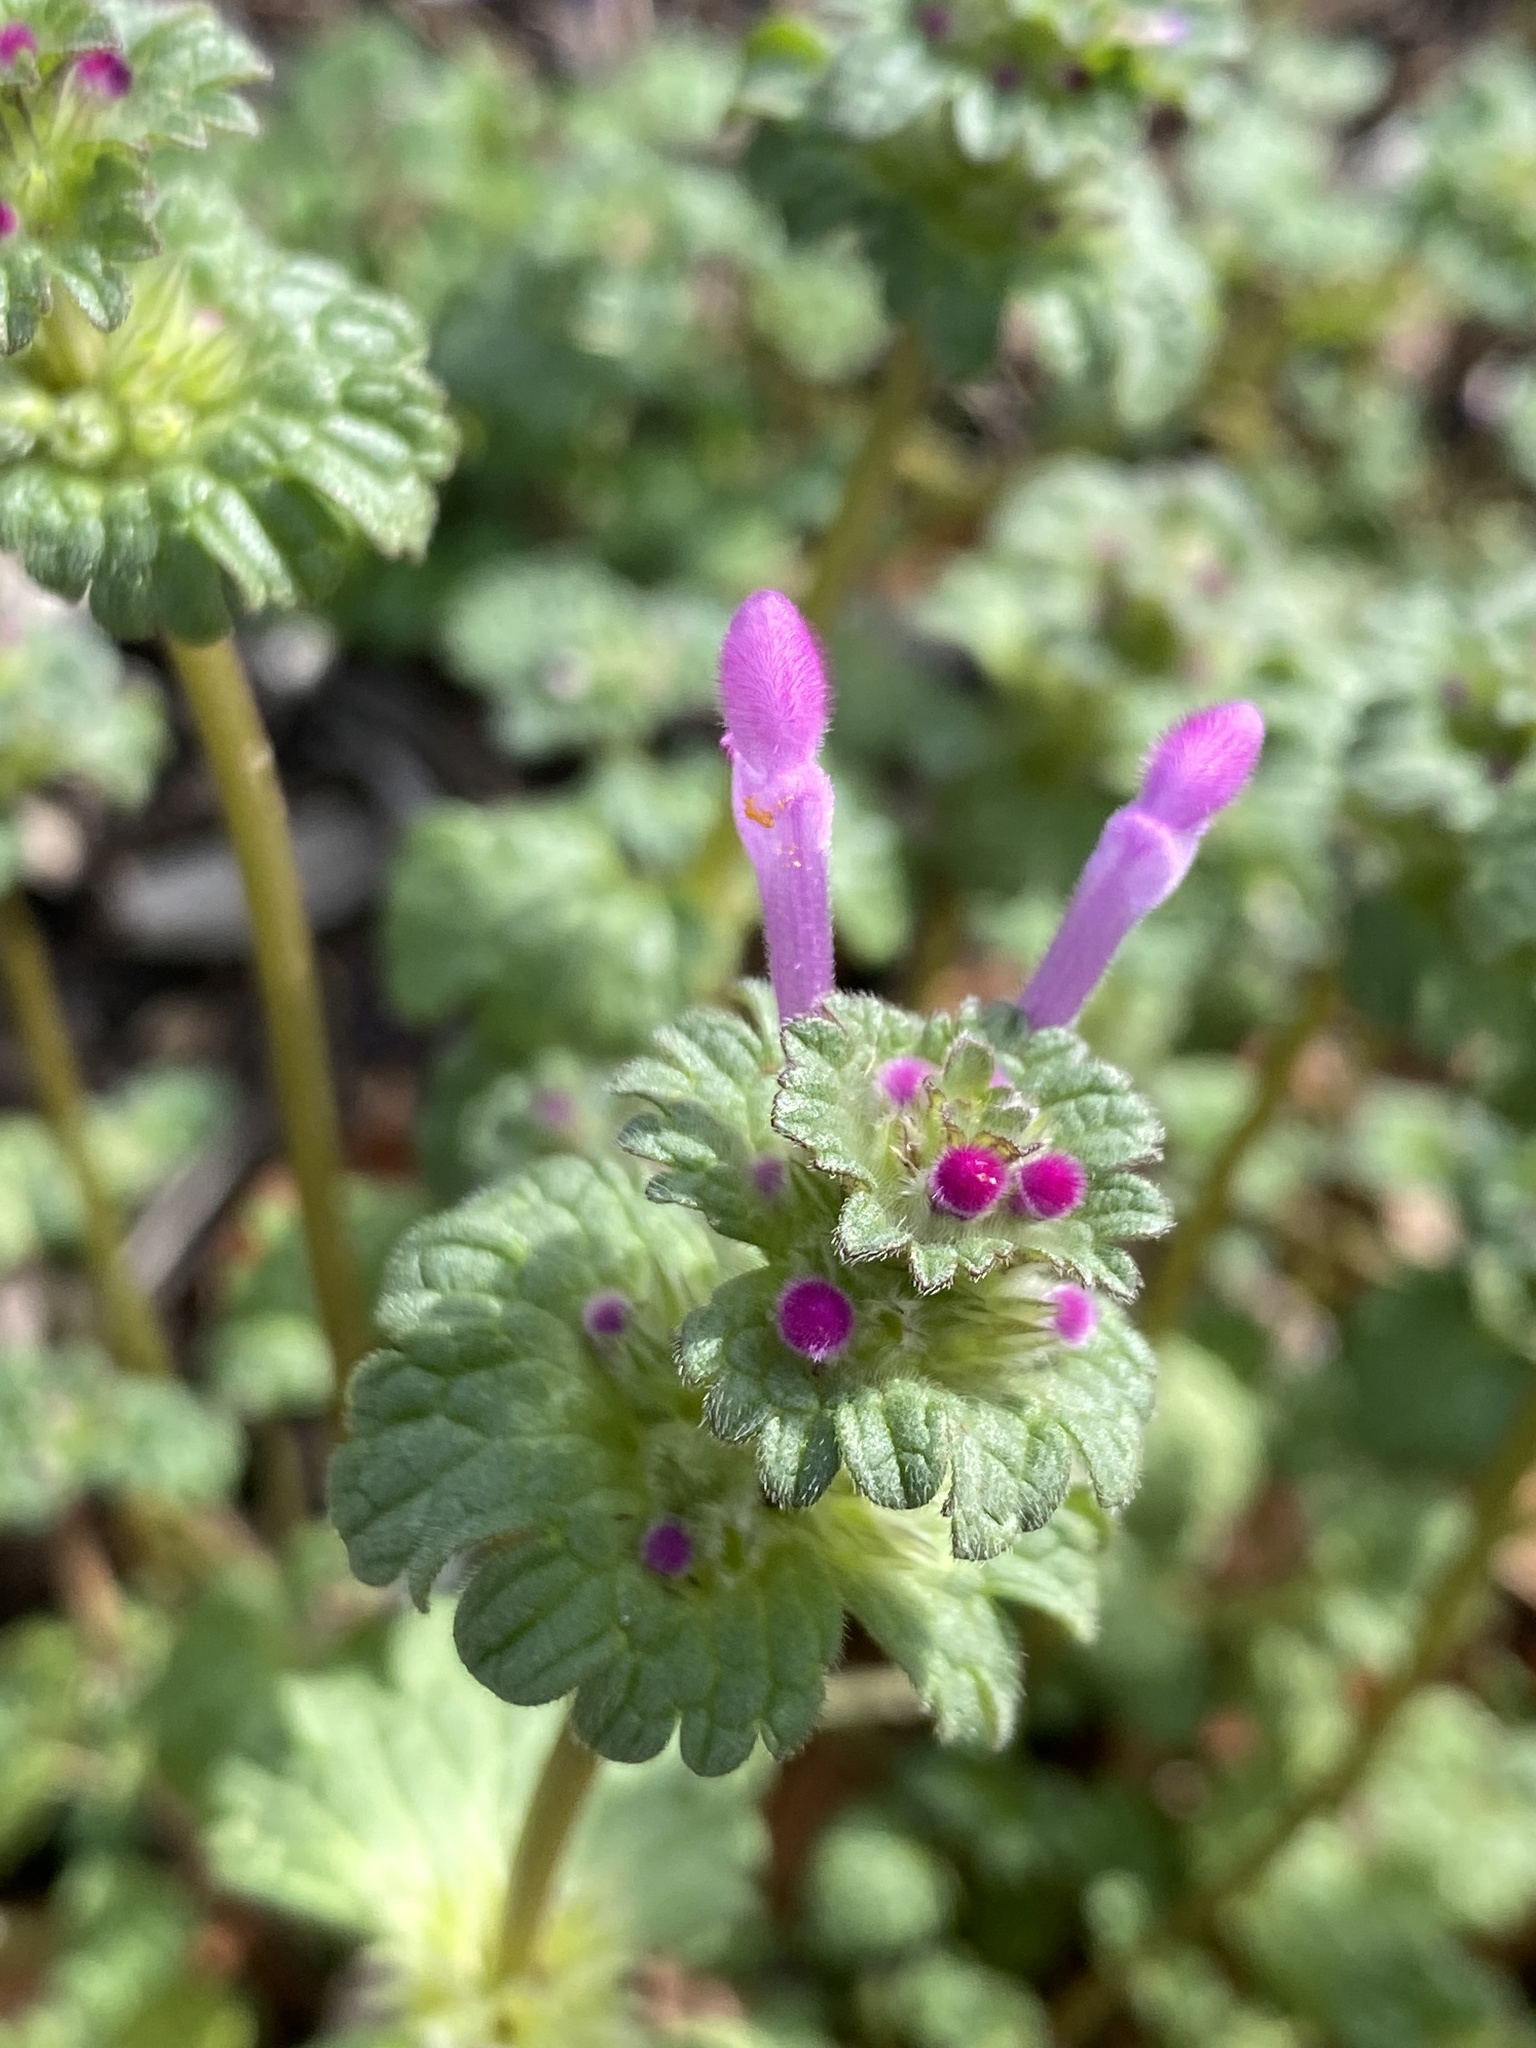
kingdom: Plantae
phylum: Tracheophyta
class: Magnoliopsida
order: Lamiales
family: Lamiaceae
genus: Lamium
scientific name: Lamium amplexicaule
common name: Henbit dead-nettle
